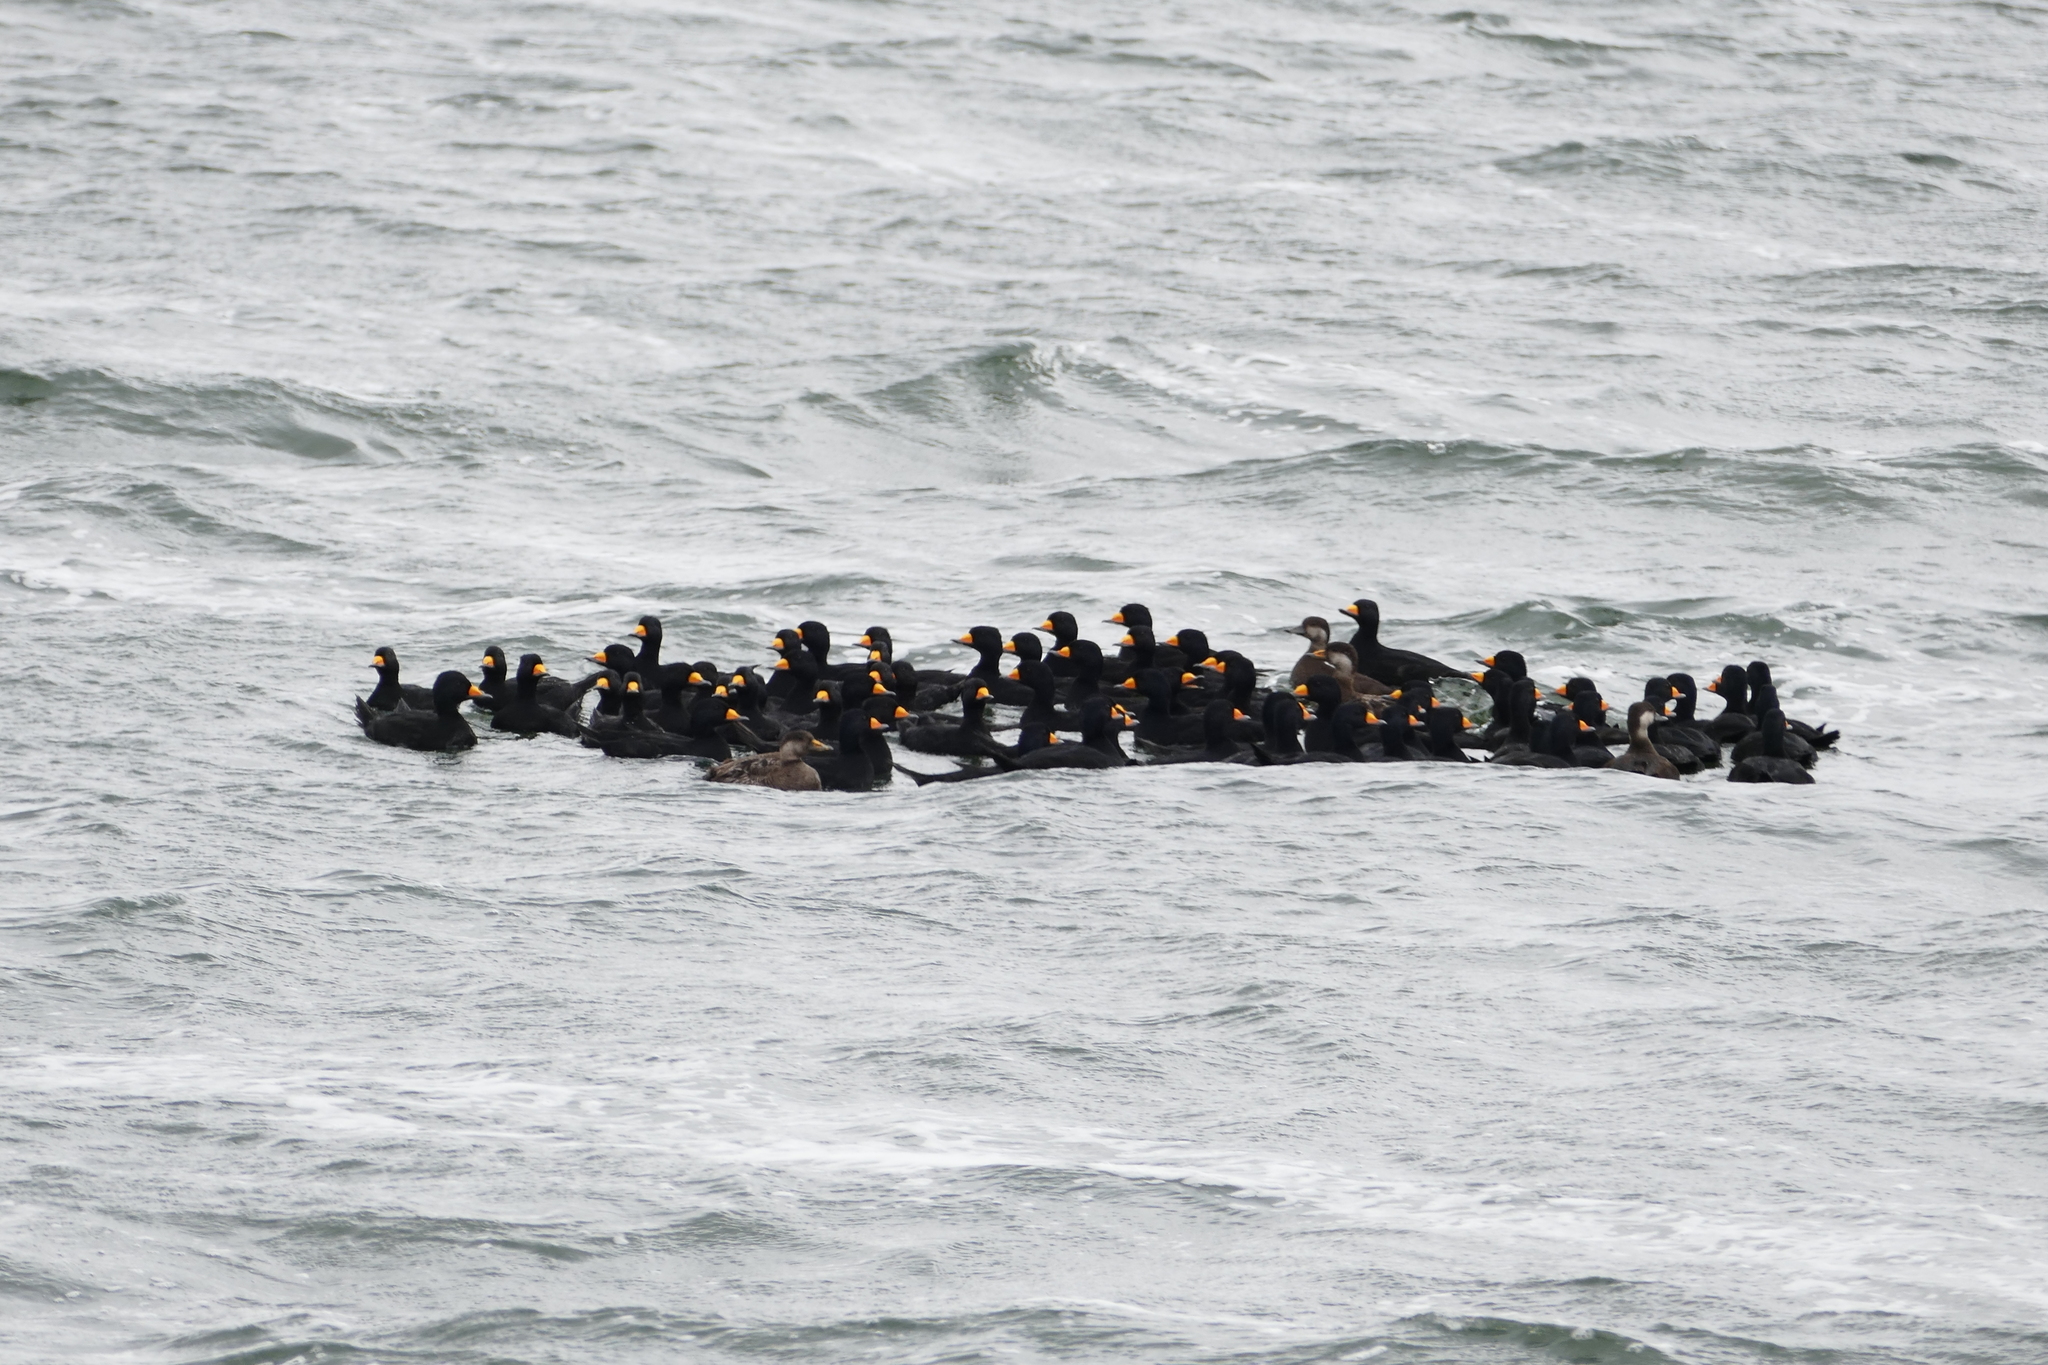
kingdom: Animalia
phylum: Chordata
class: Aves
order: Anseriformes
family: Anatidae
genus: Melanitta
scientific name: Melanitta americana
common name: Black scoter
